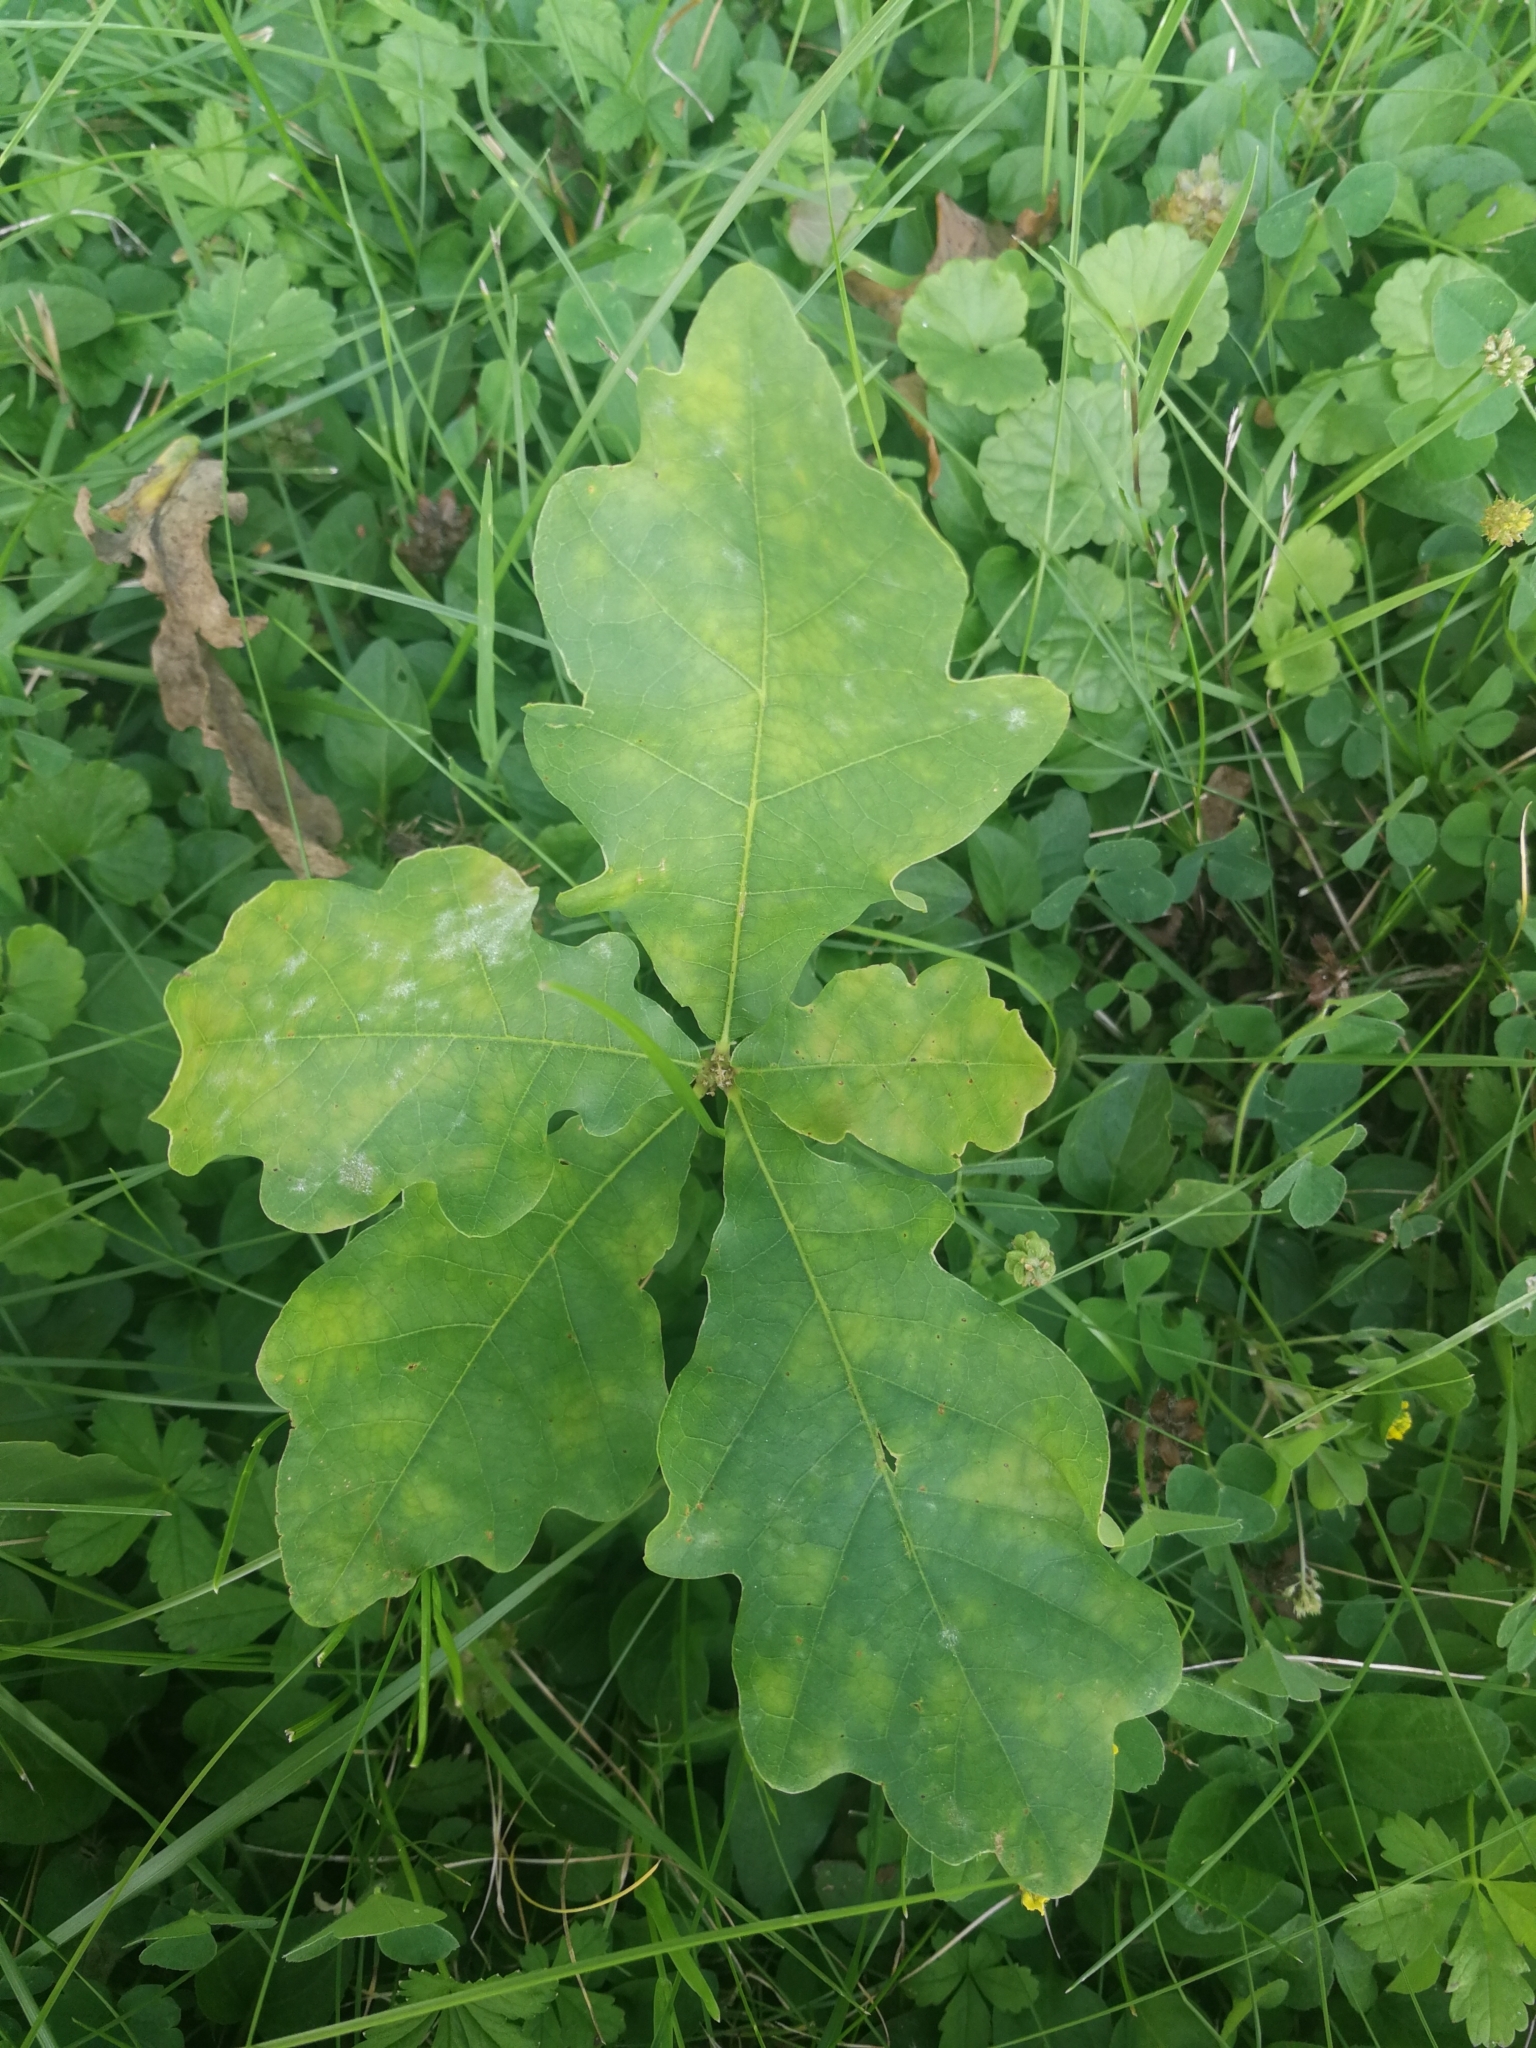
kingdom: Plantae
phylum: Tracheophyta
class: Magnoliopsida
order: Fagales
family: Fagaceae
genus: Quercus
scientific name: Quercus robur
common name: Pedunculate oak
